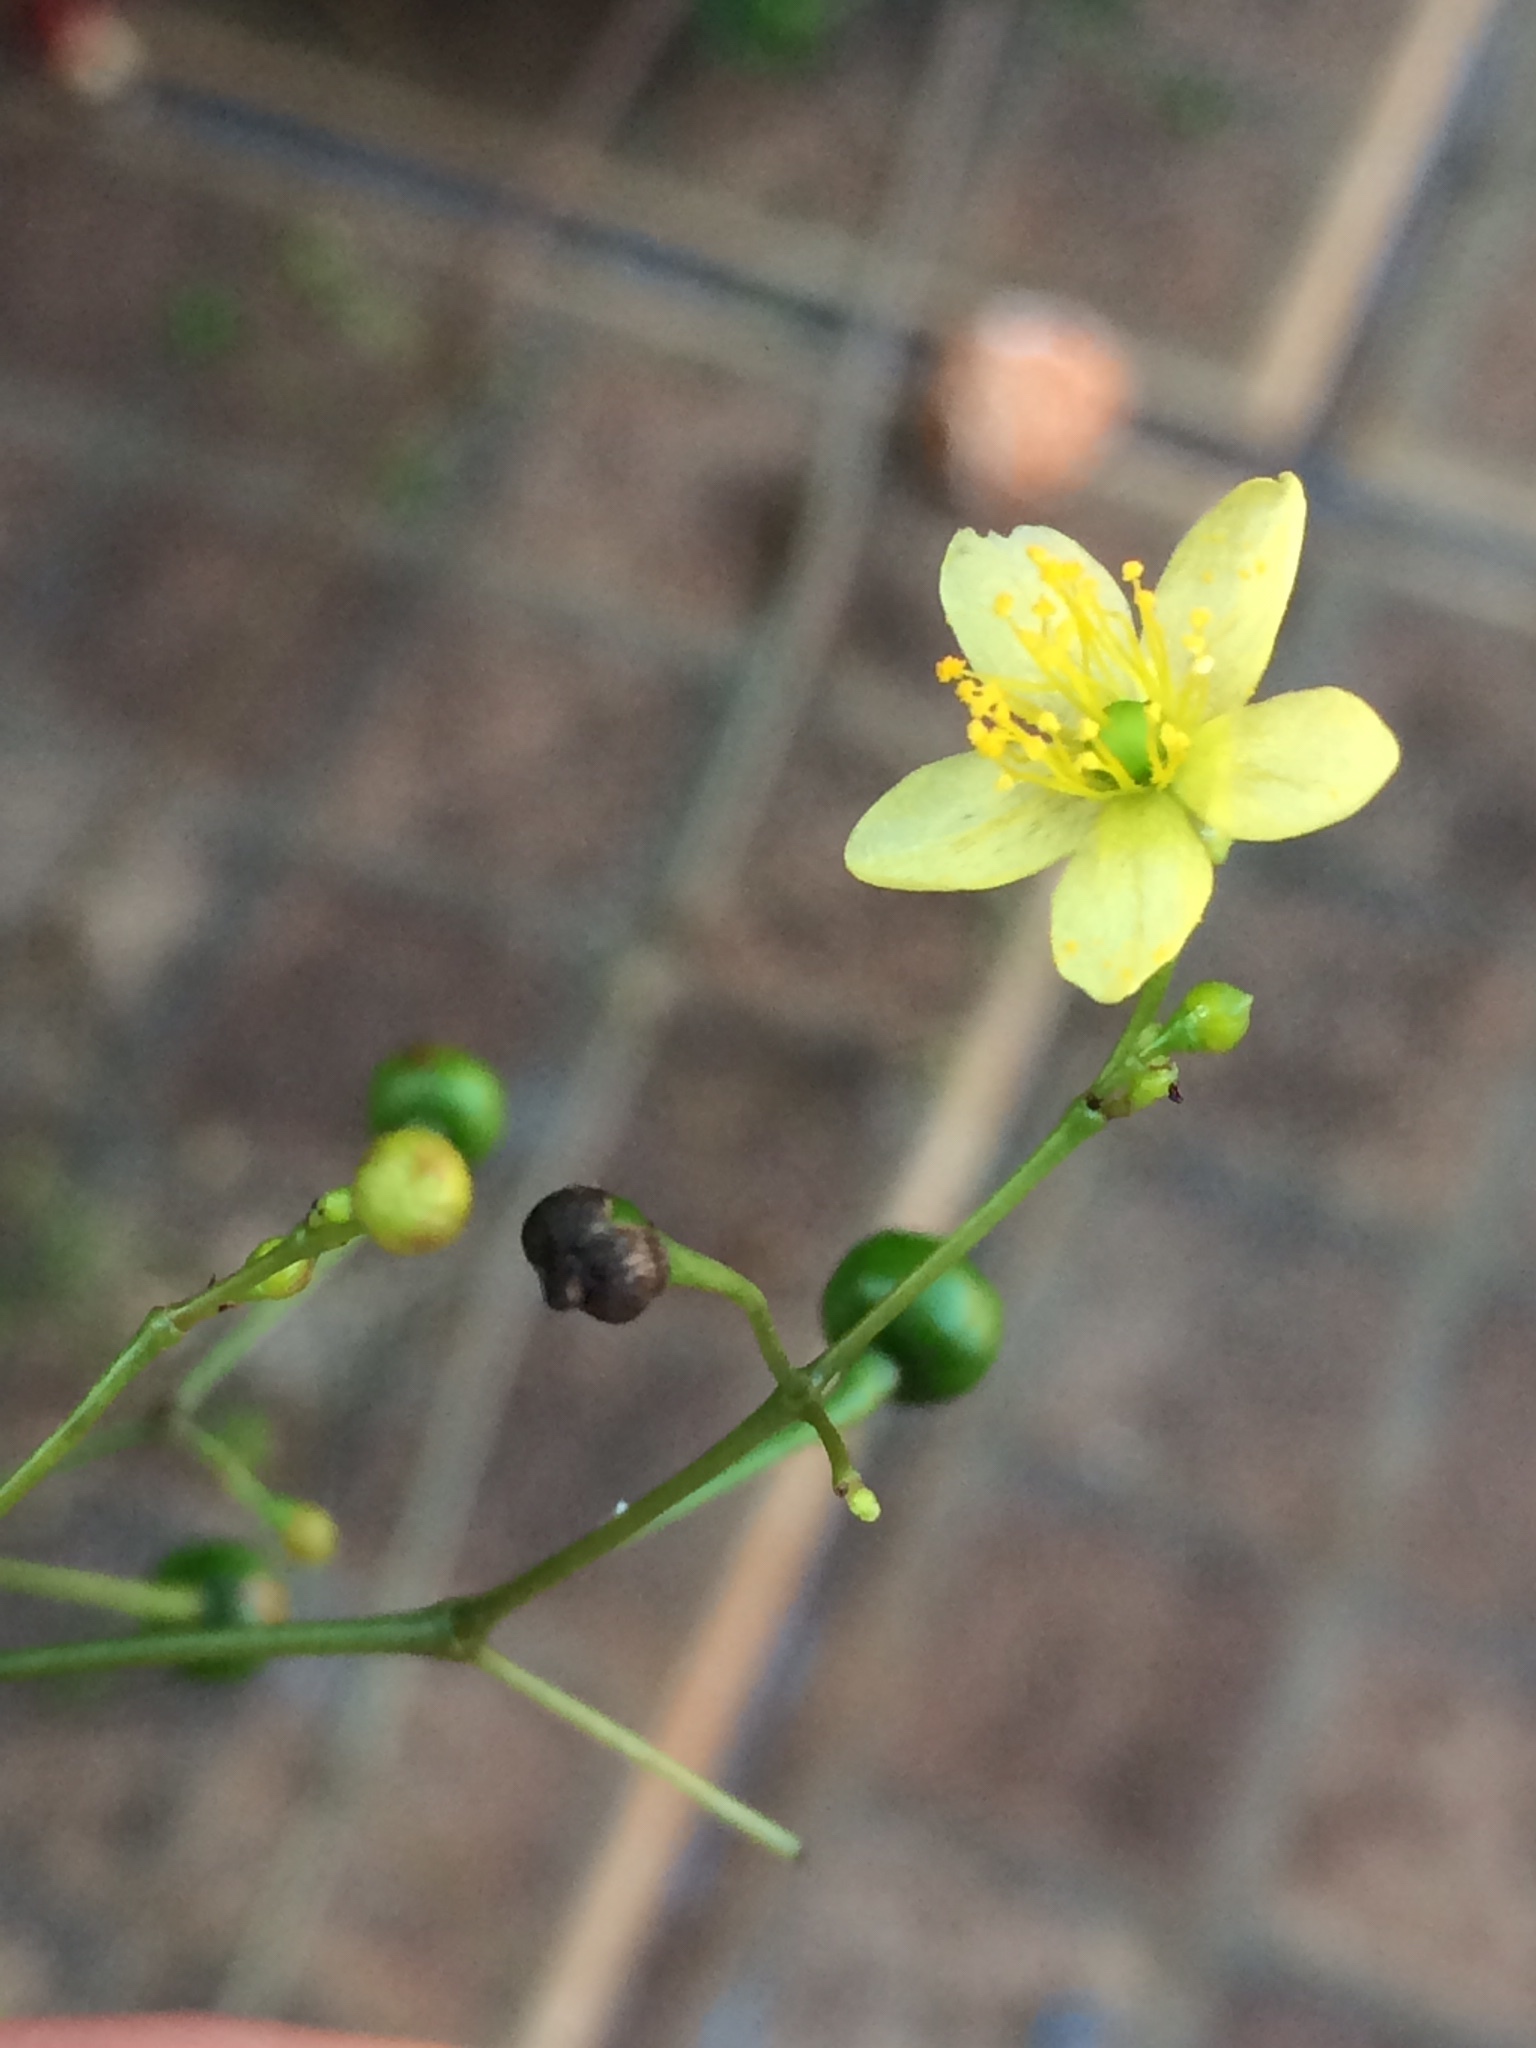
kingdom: Plantae
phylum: Tracheophyta
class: Magnoliopsida
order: Caryophyllales
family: Talinaceae
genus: Talinum
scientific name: Talinum paniculatum
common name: Jewels of opar
